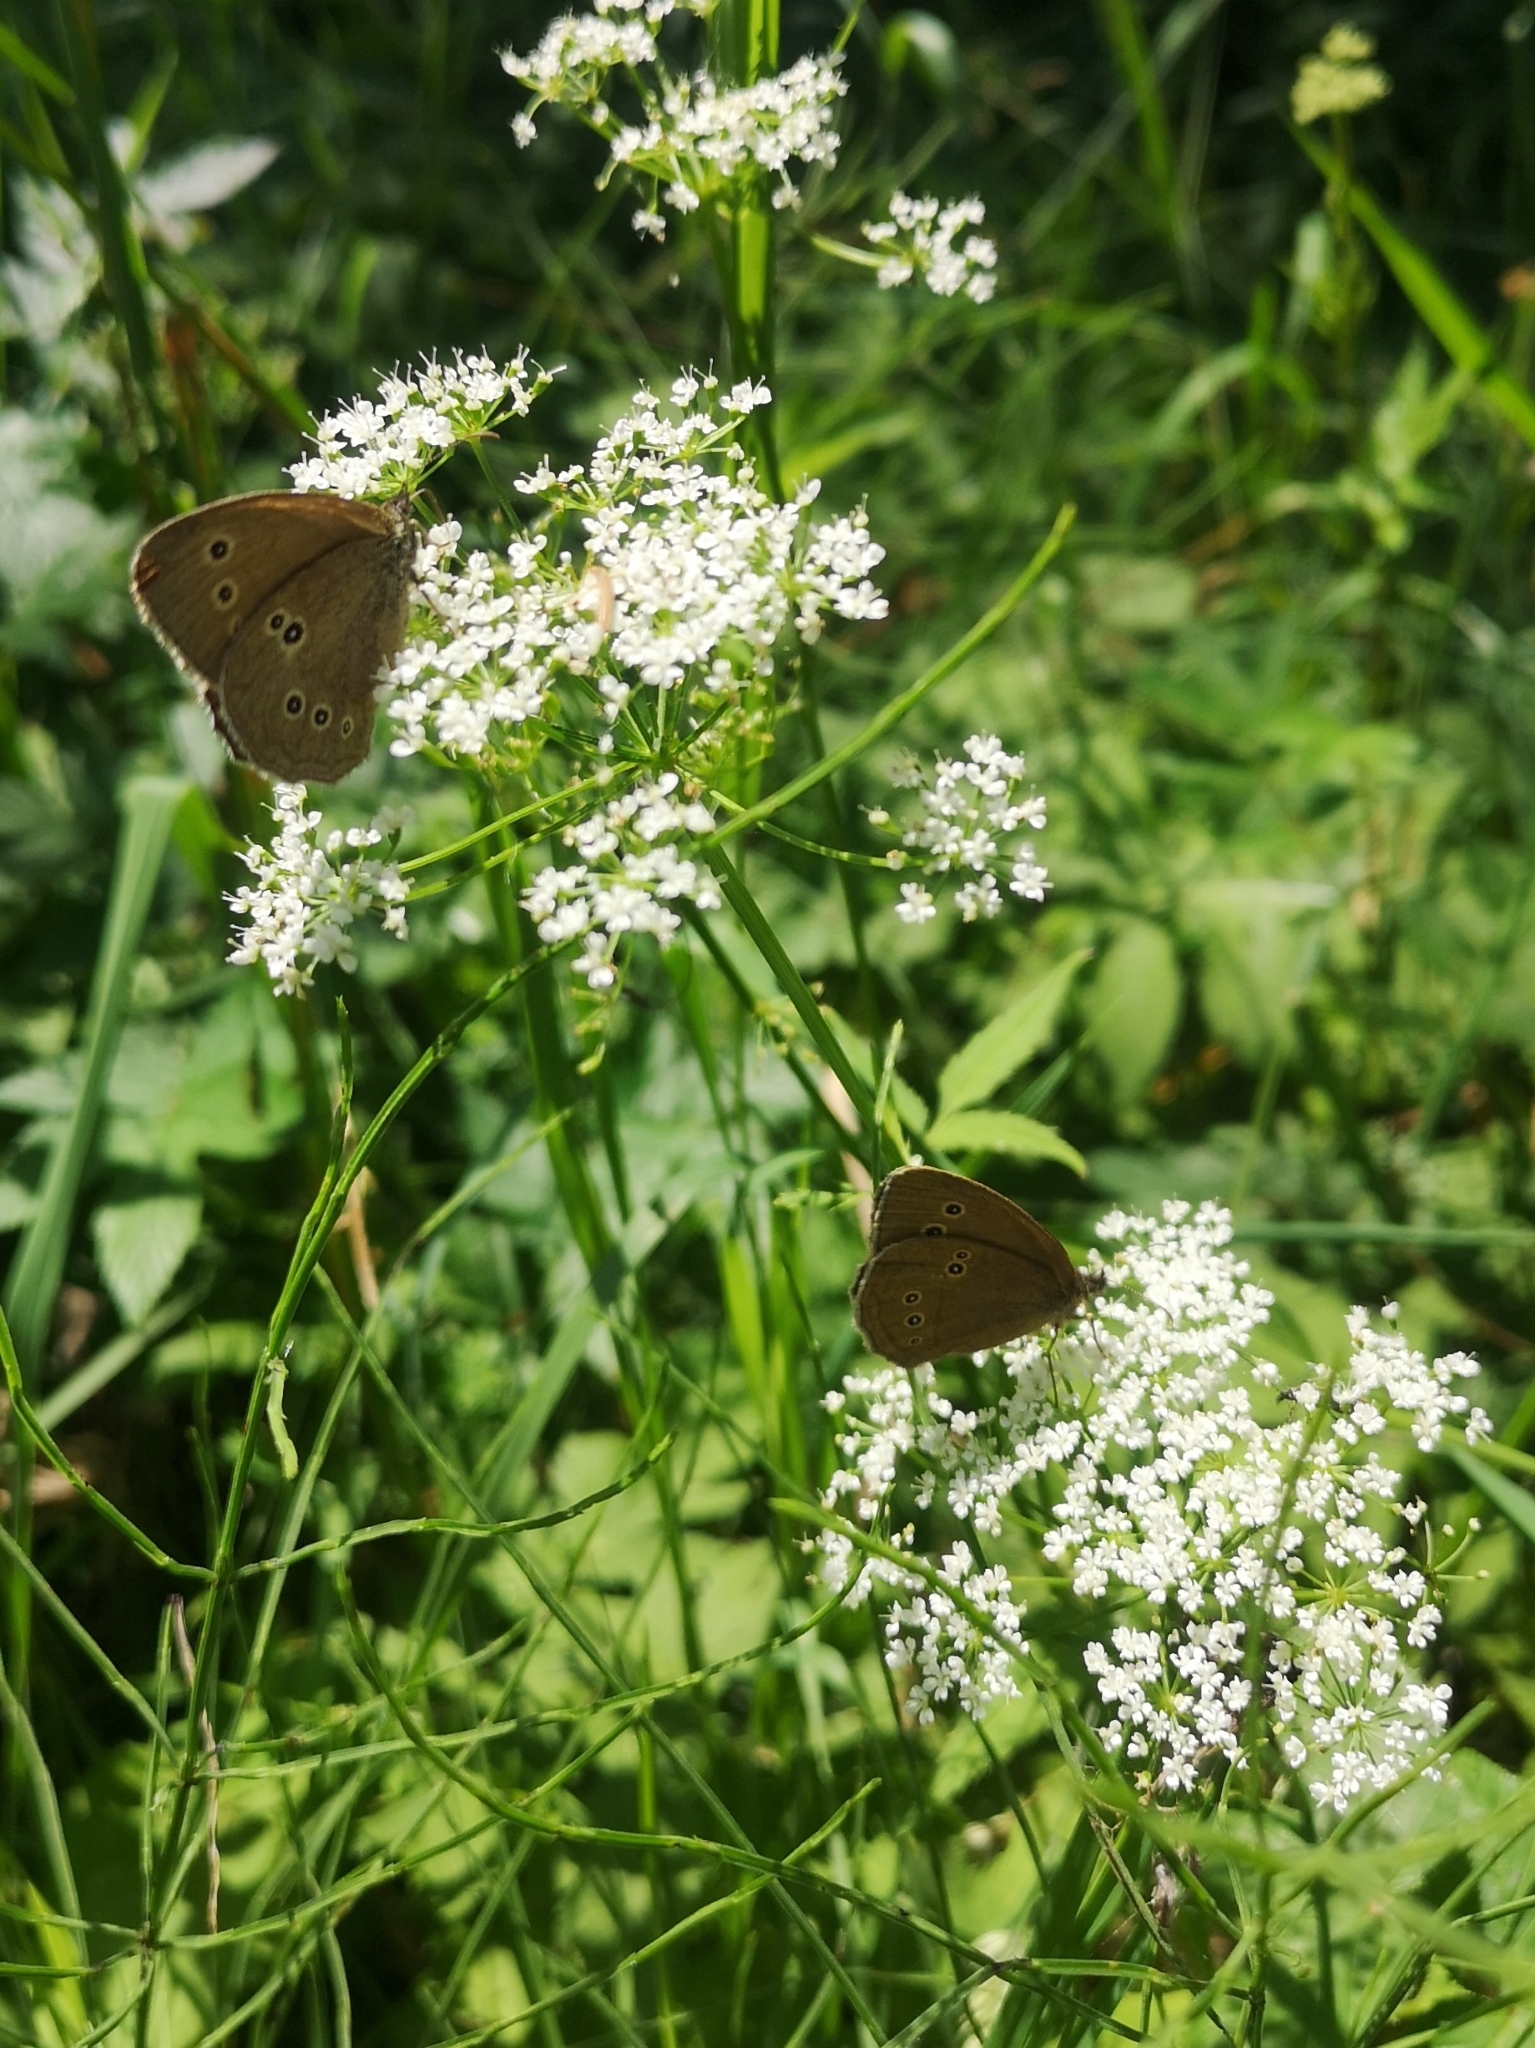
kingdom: Animalia
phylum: Arthropoda
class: Insecta
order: Lepidoptera
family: Nymphalidae
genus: Aphantopus
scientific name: Aphantopus hyperantus
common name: Ringlet
